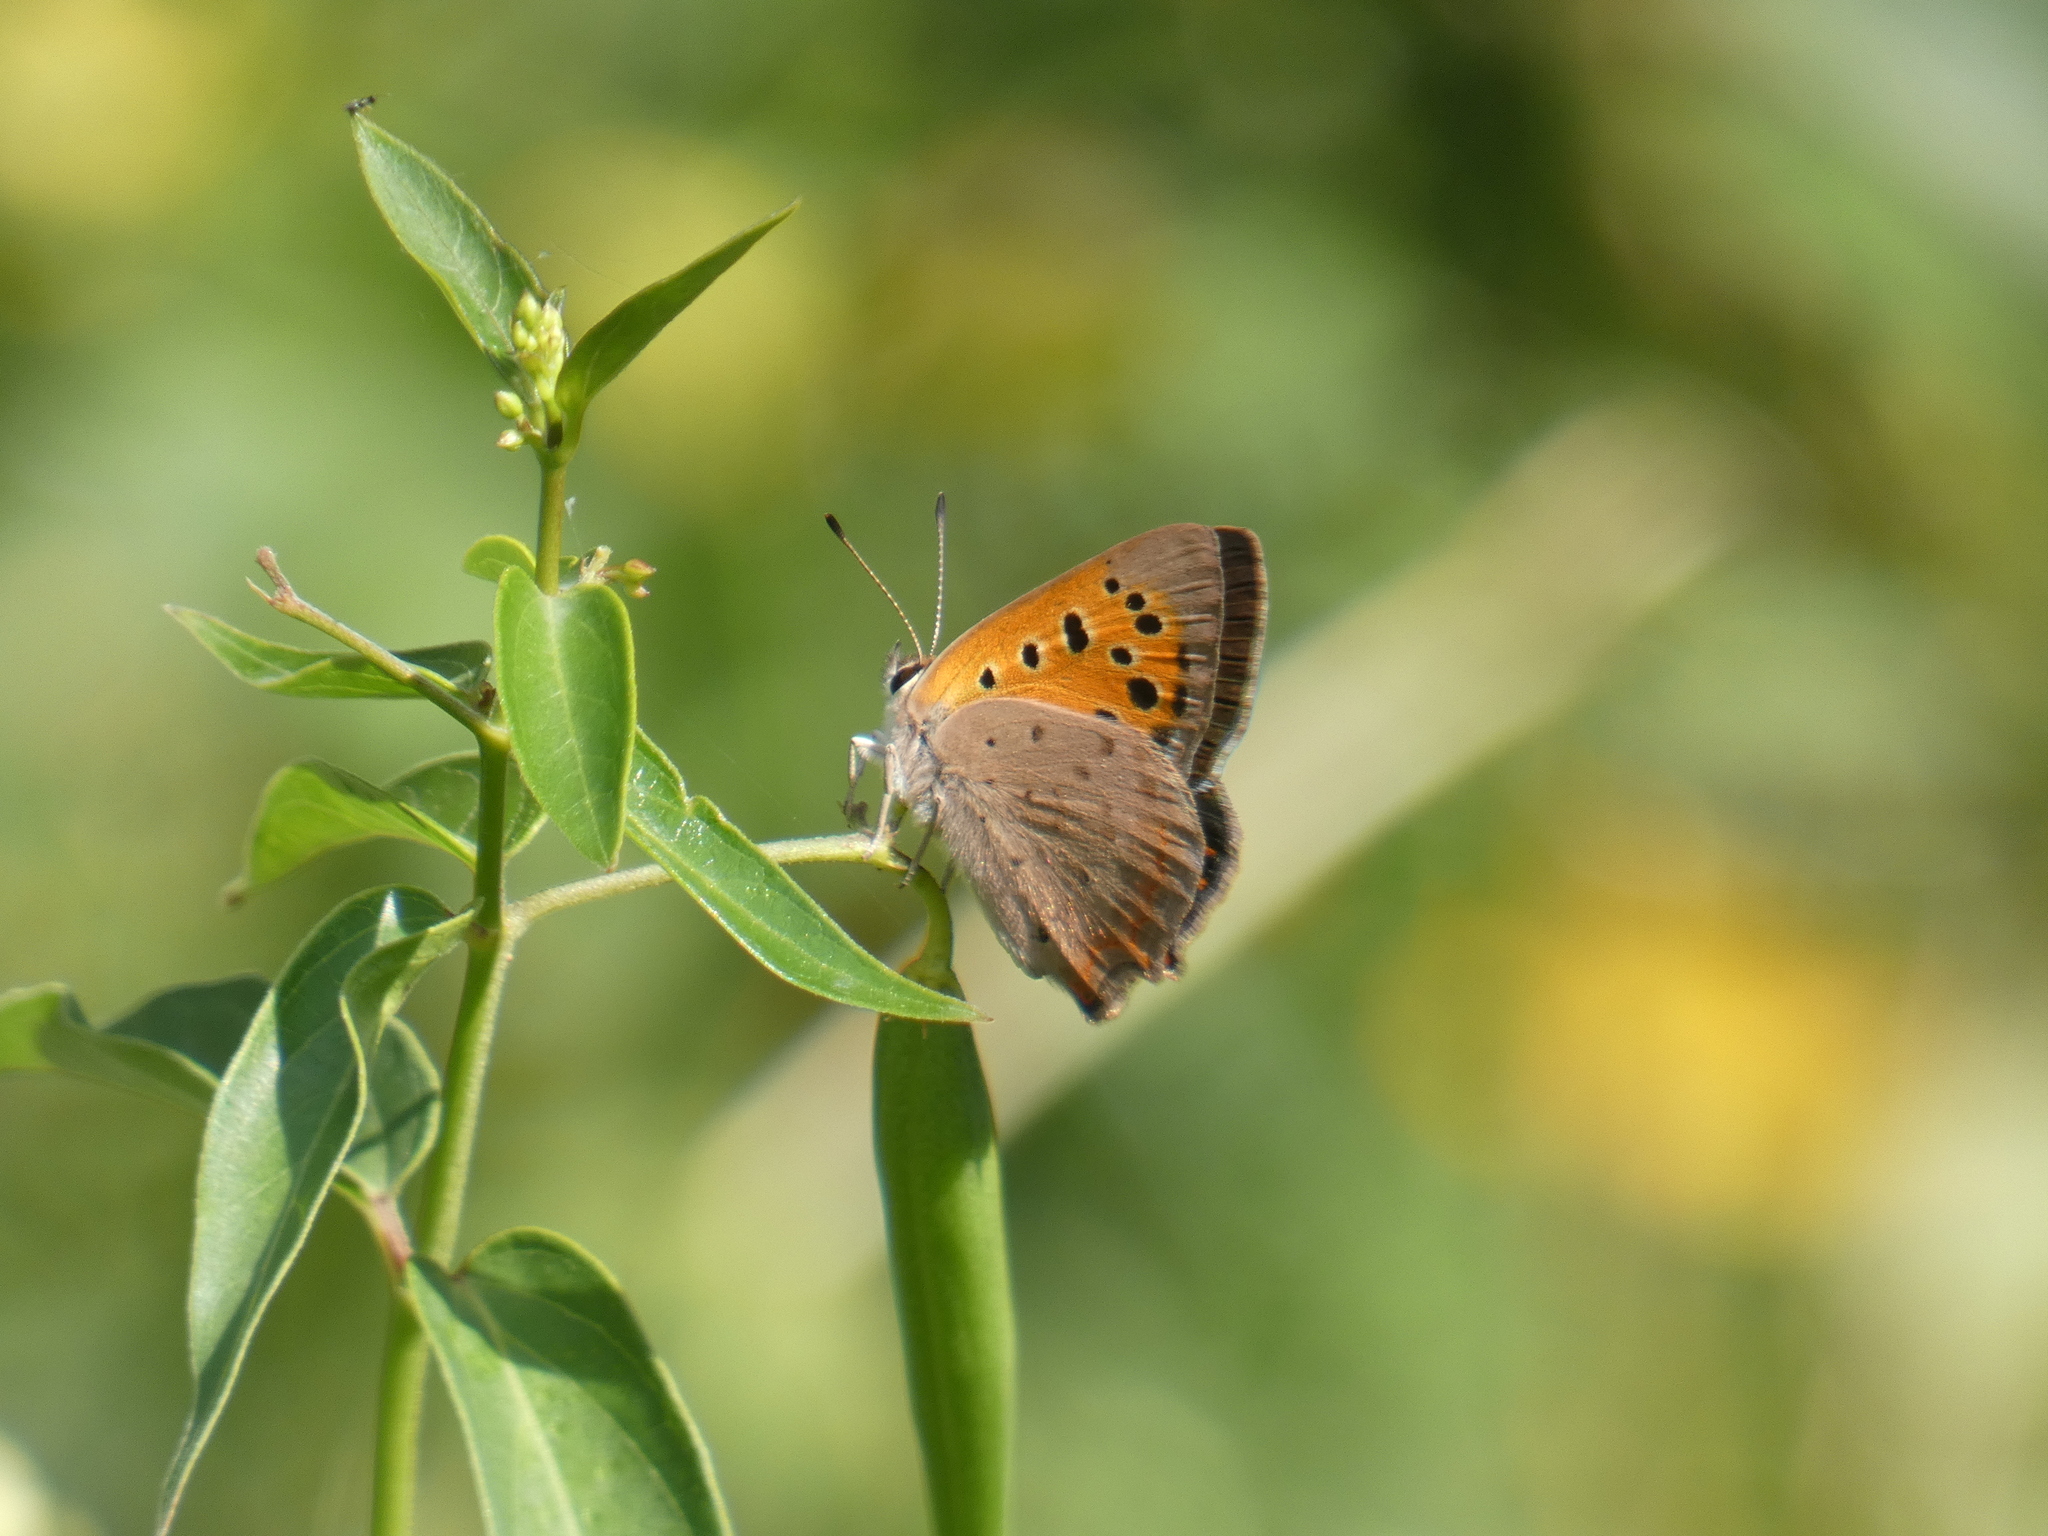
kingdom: Animalia
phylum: Arthropoda
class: Insecta
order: Lepidoptera
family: Lycaenidae
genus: Lycaena
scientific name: Lycaena phlaeas
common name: Small copper
